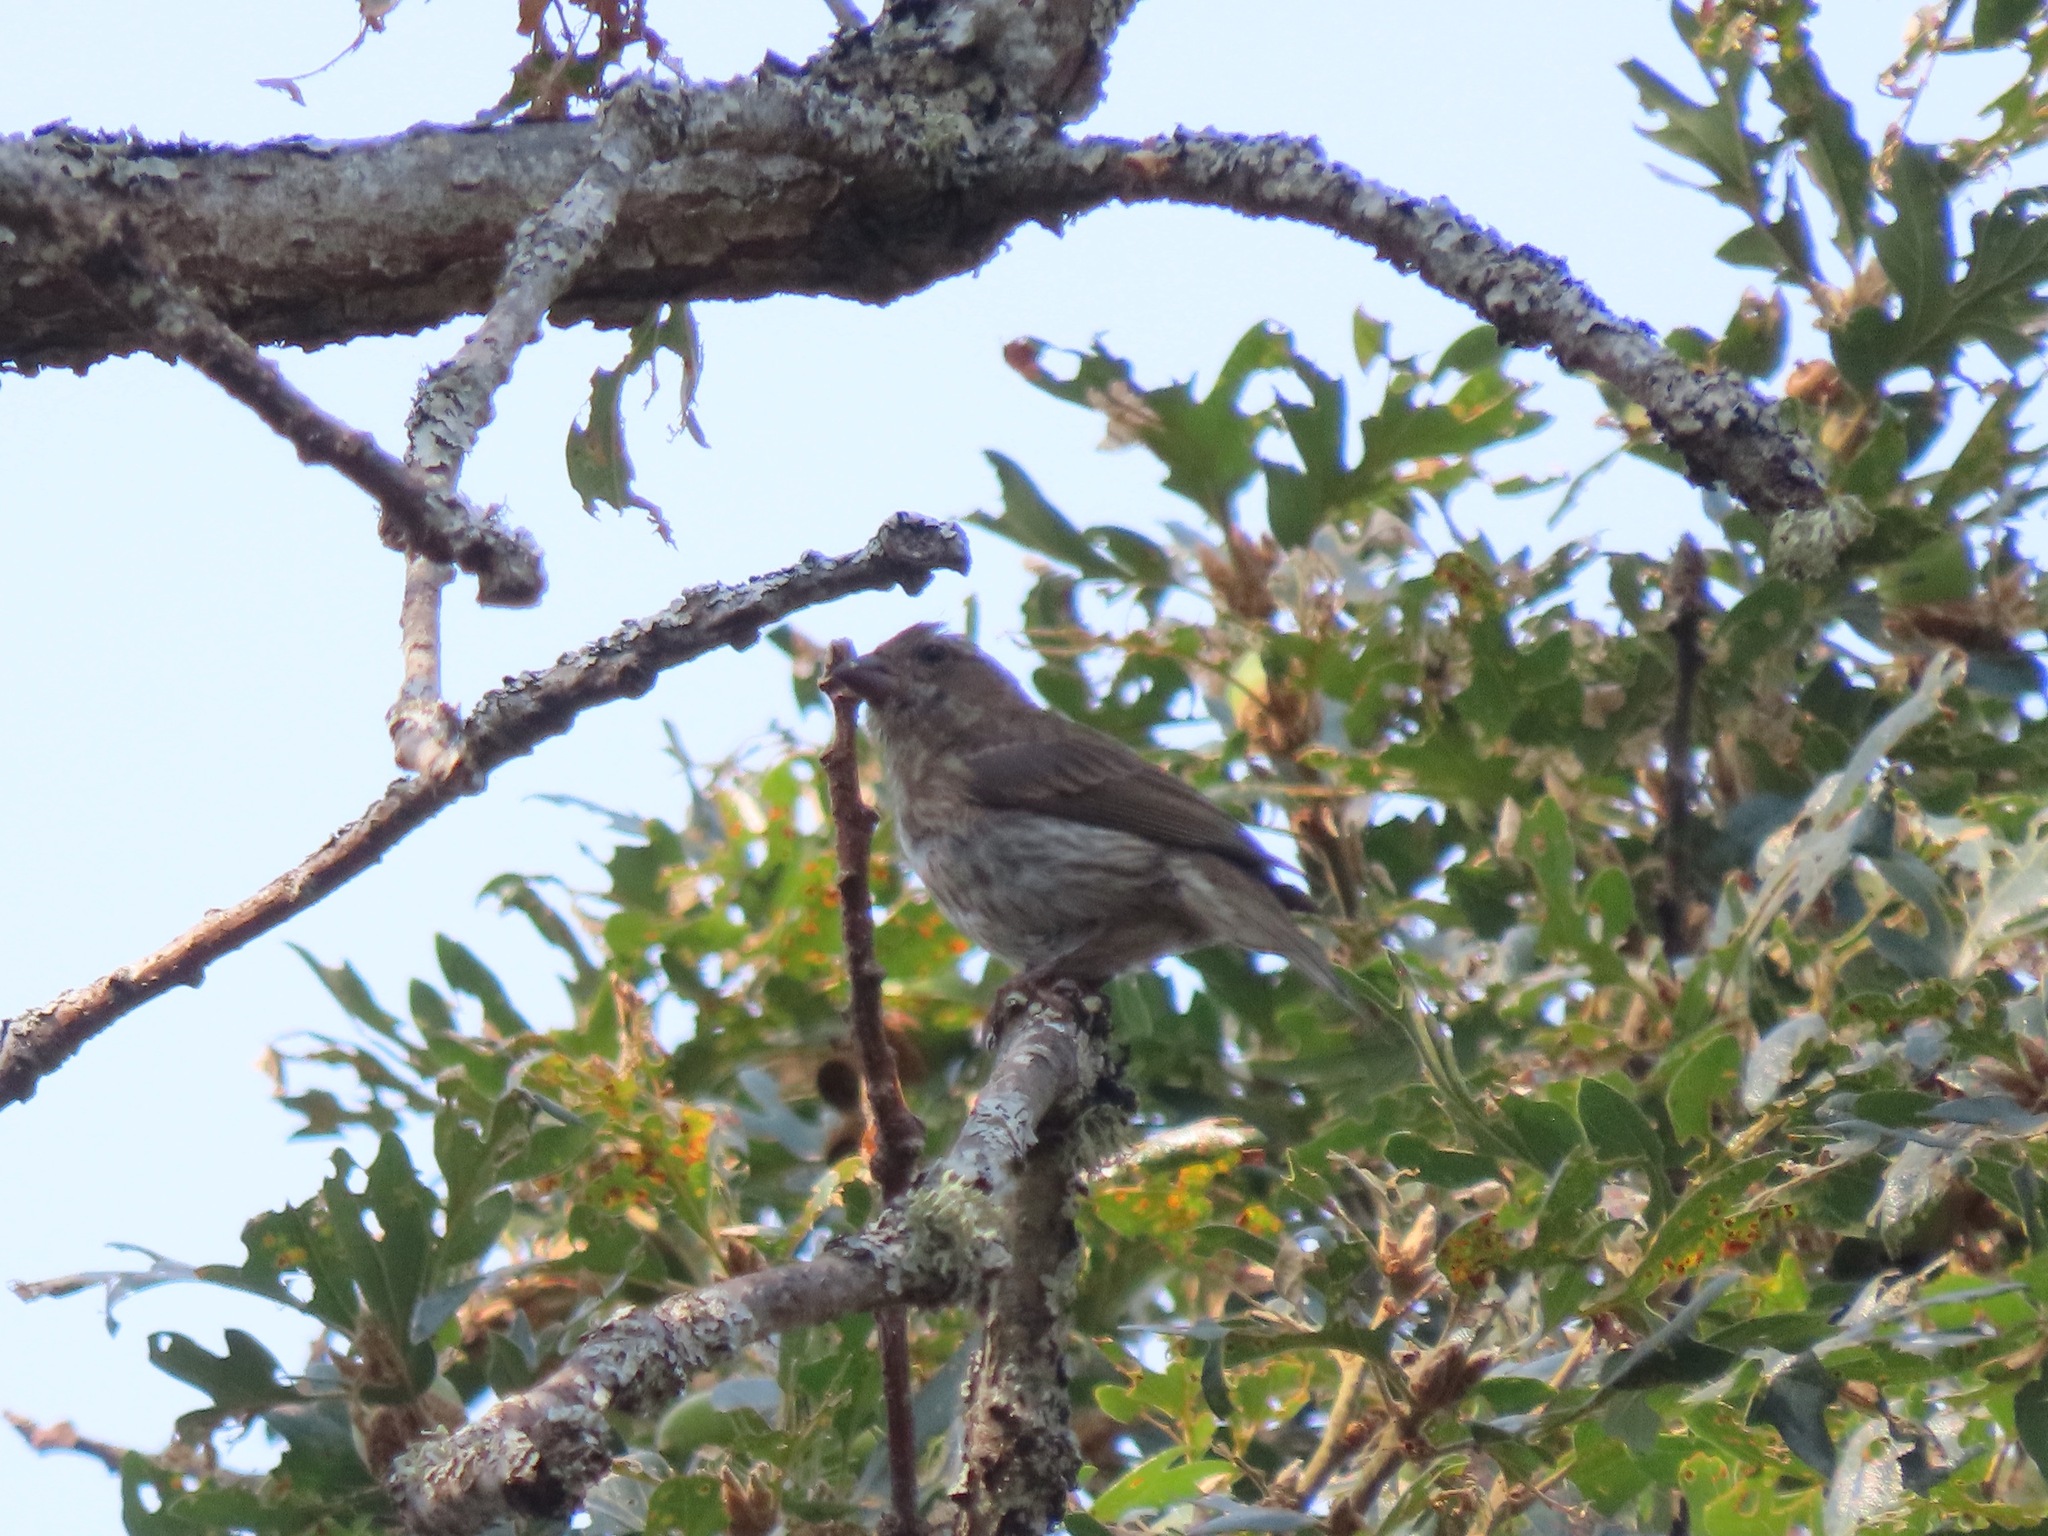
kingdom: Animalia
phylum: Chordata
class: Aves
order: Passeriformes
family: Fringillidae
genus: Haemorhous
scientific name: Haemorhous purpureus
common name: Purple finch
